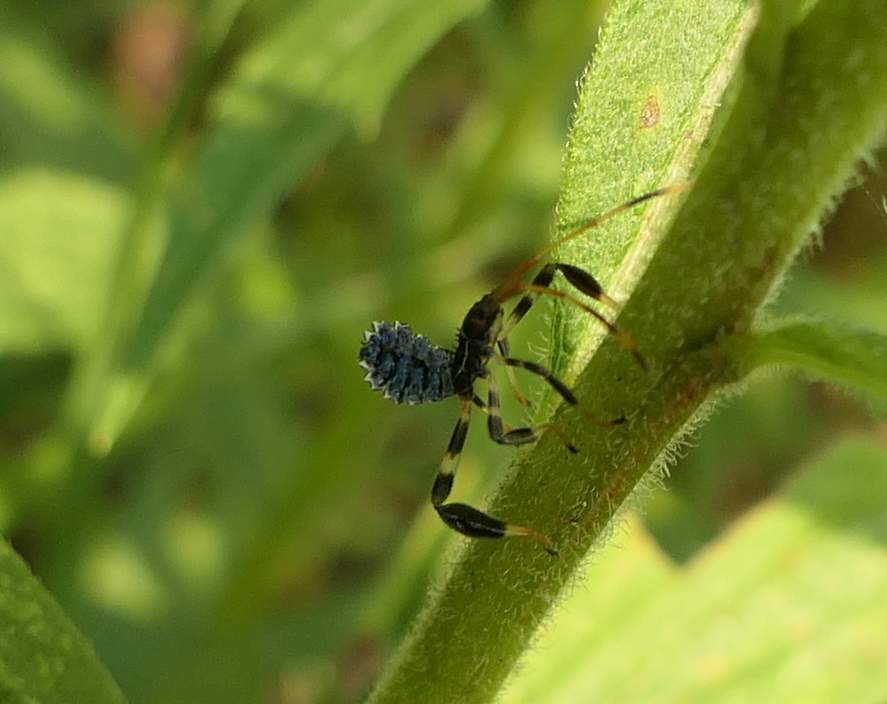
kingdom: Animalia
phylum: Arthropoda
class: Insecta
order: Hemiptera
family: Coreidae
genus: Acanthocephala
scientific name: Acanthocephala terminalis
